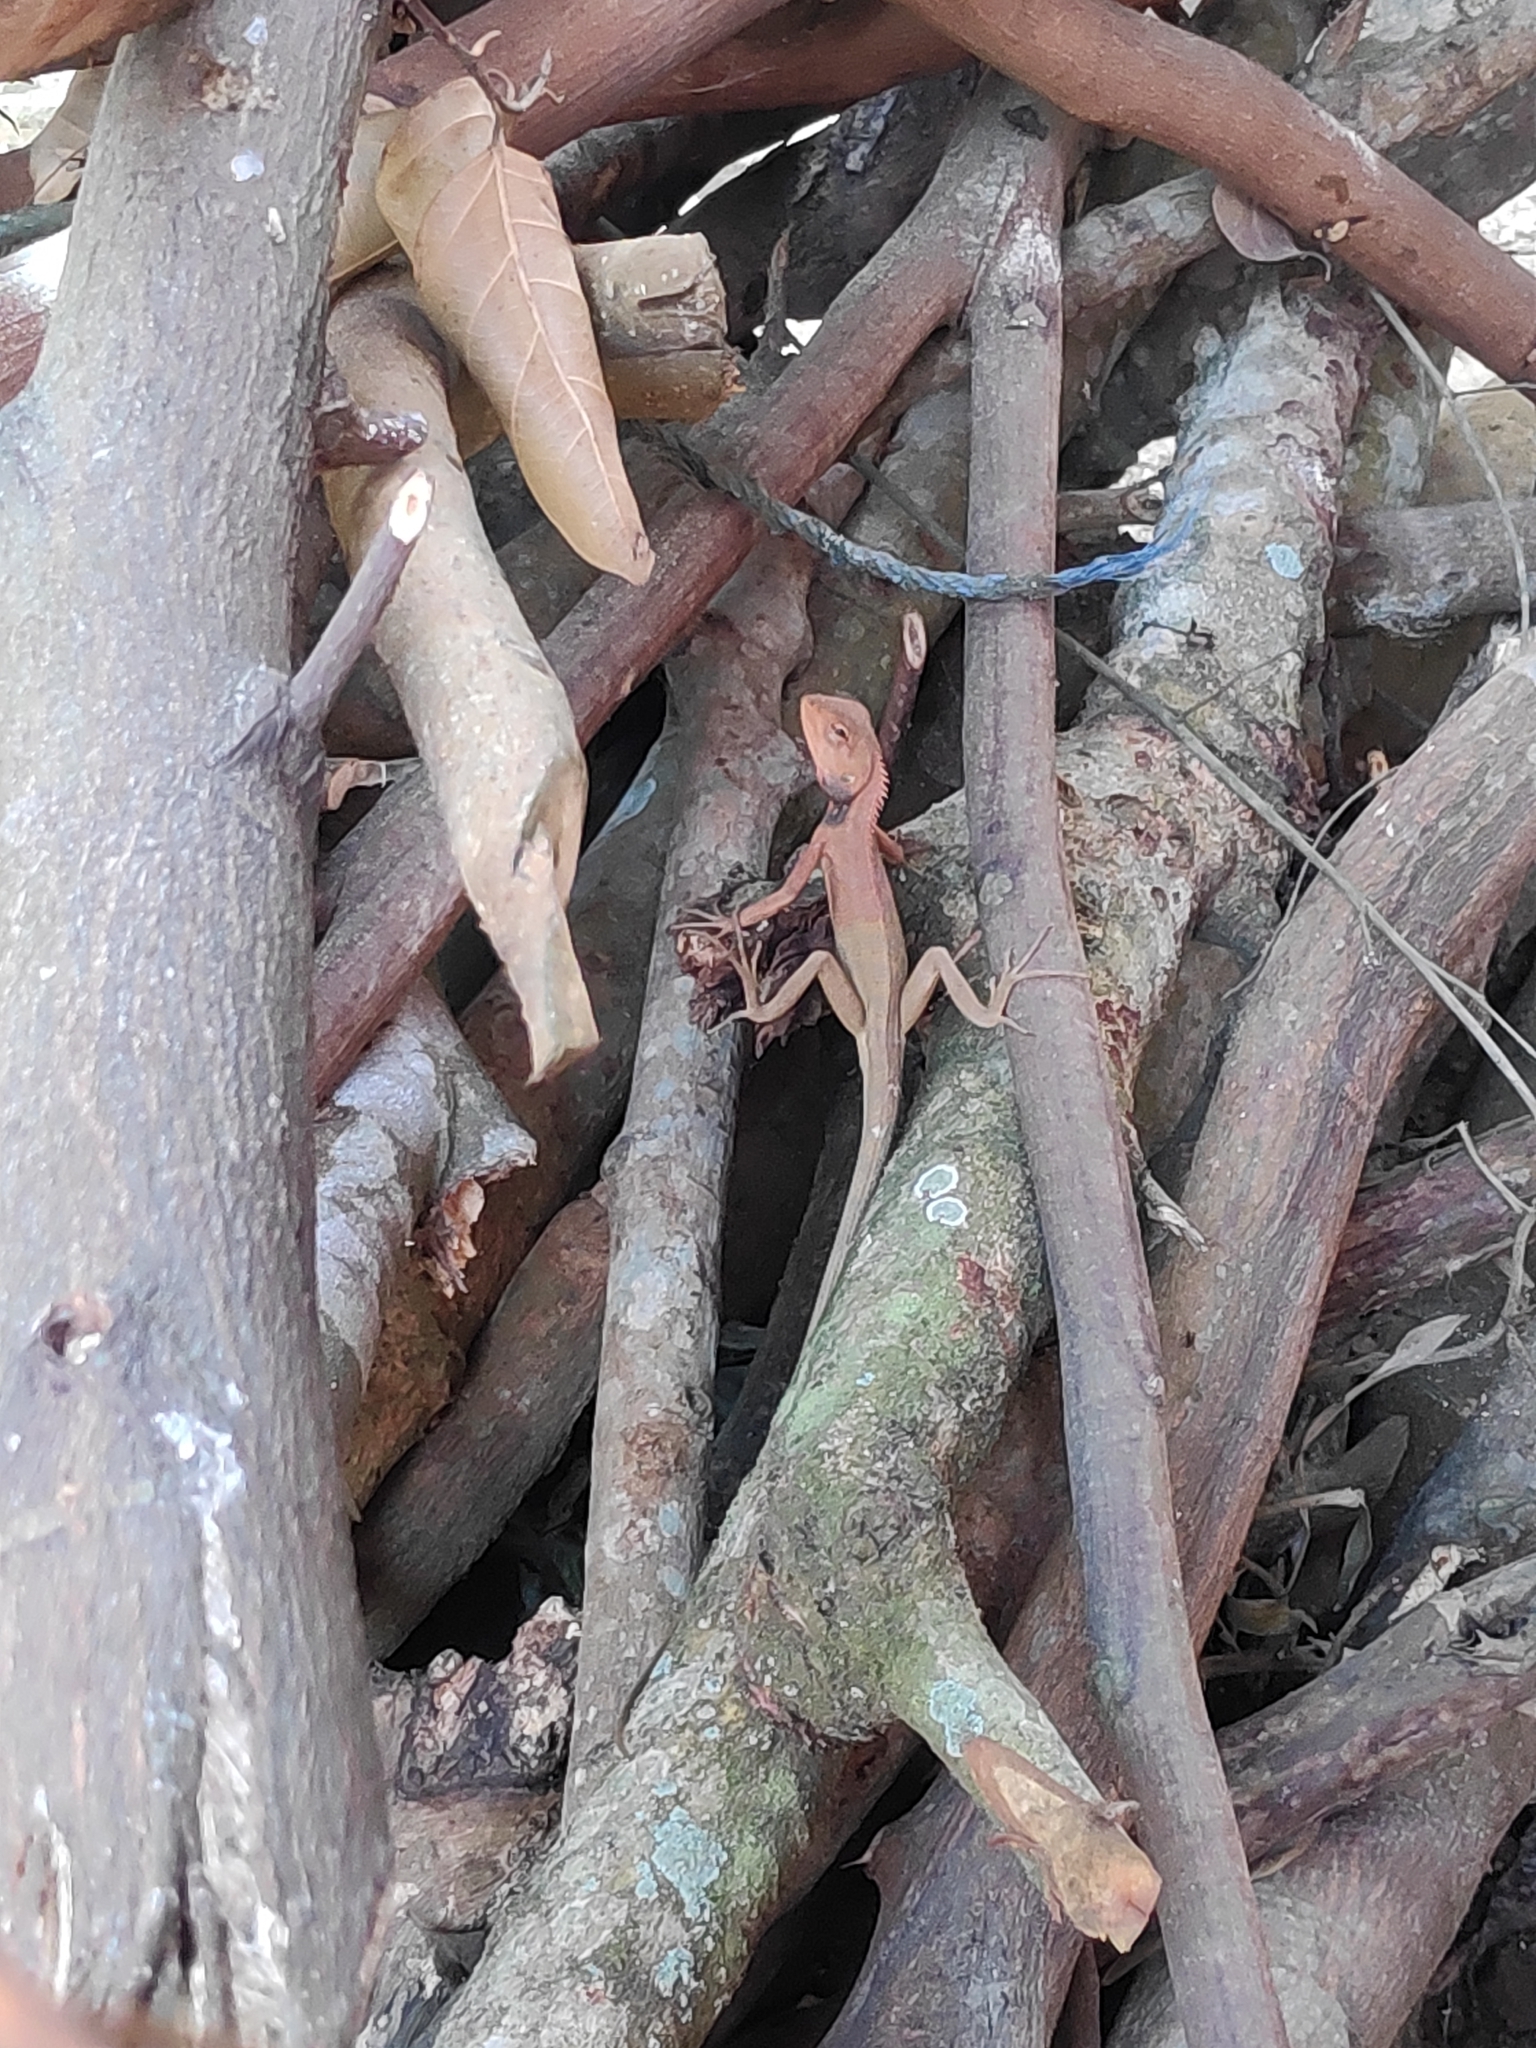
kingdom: Animalia
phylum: Chordata
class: Squamata
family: Agamidae
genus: Calotes
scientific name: Calotes versicolor
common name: Oriental garden lizard
